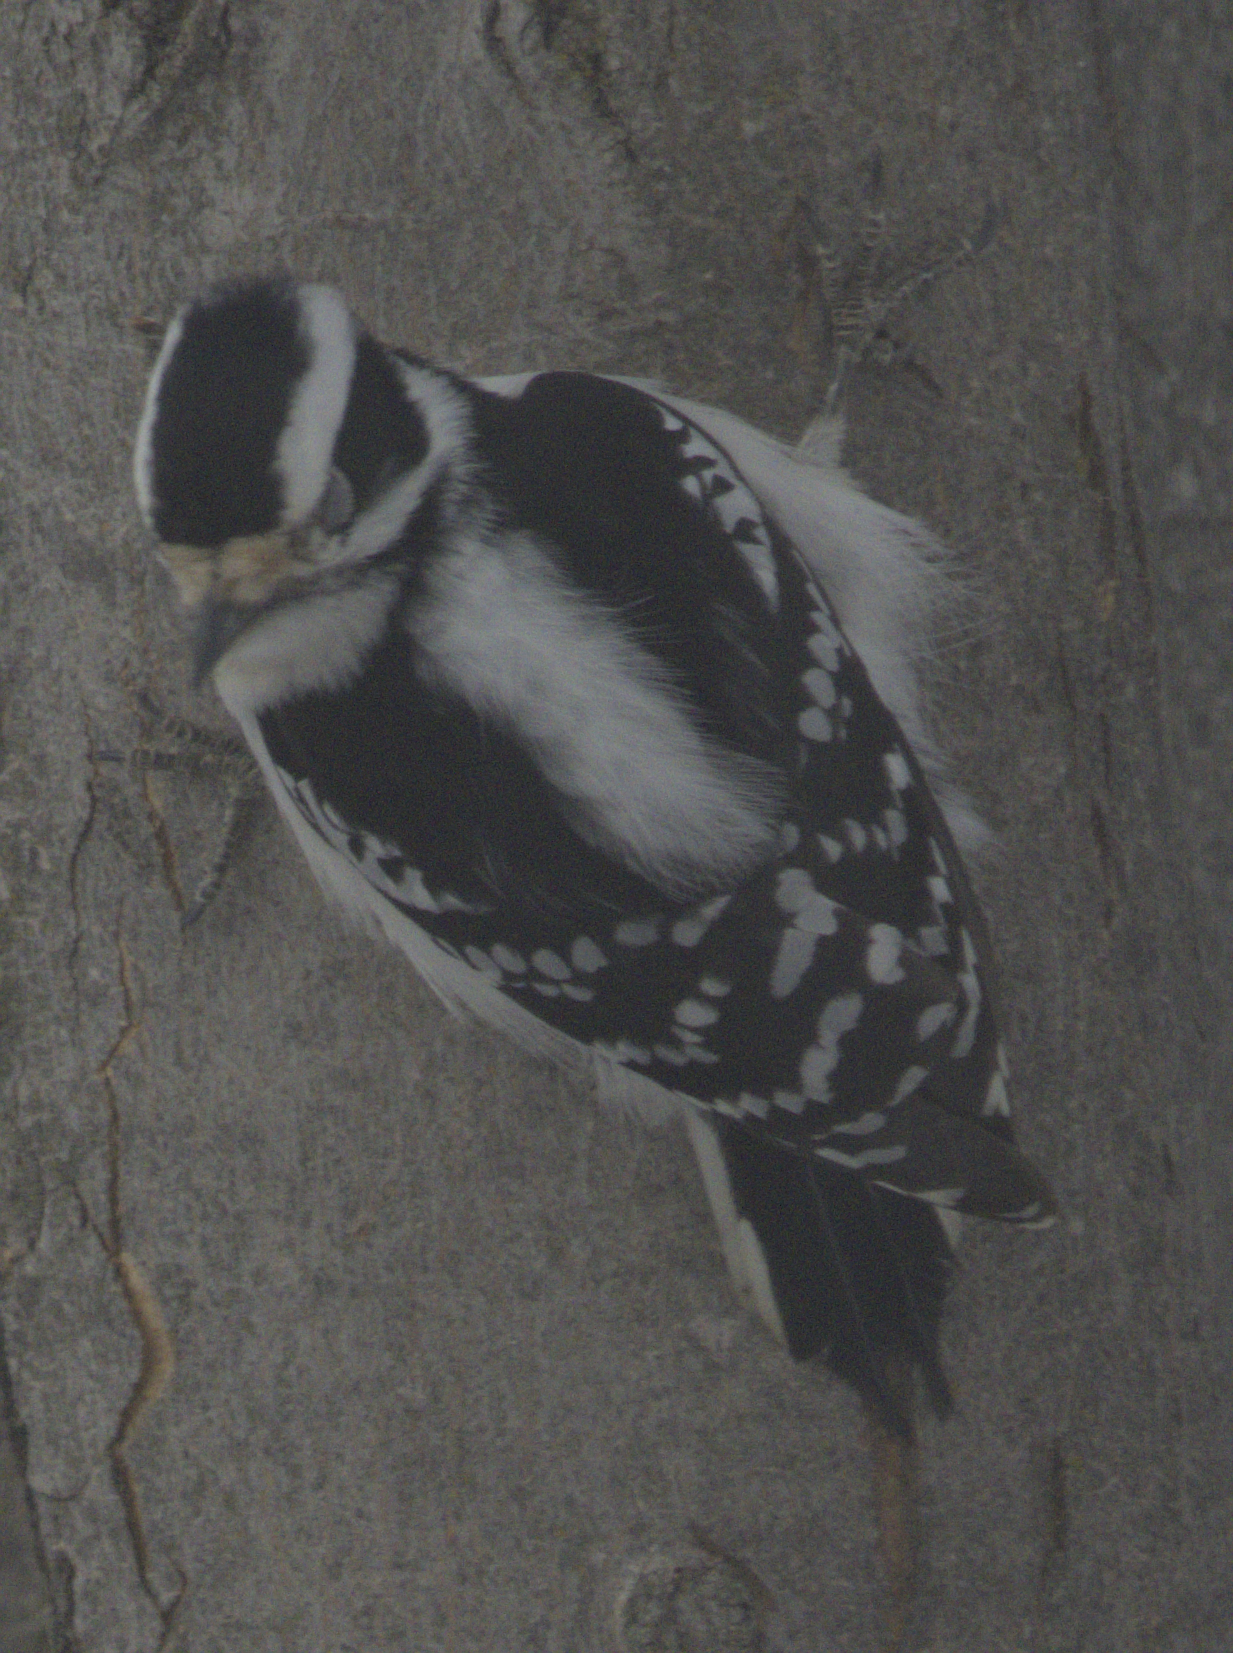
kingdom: Animalia
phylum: Chordata
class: Aves
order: Piciformes
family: Picidae
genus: Dryobates
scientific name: Dryobates pubescens
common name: Downy woodpecker
